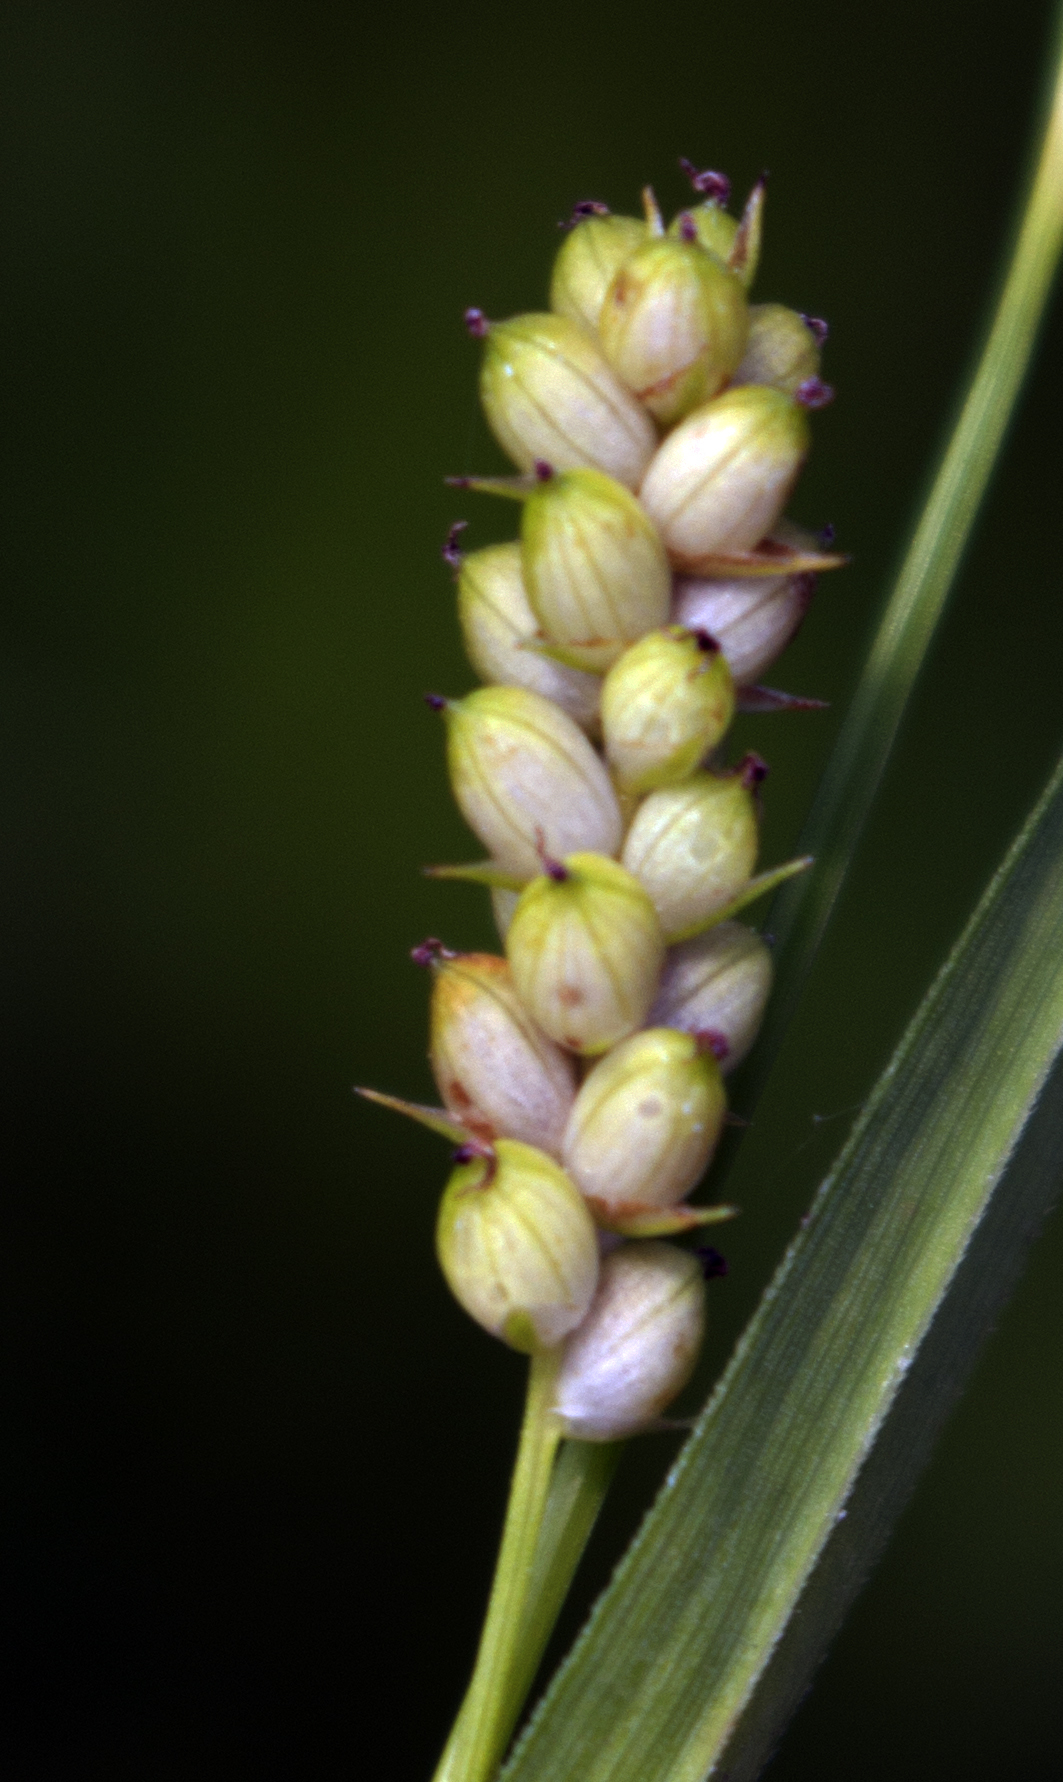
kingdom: Plantae
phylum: Tracheophyta
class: Liliopsida
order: Poales
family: Cyperaceae
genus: Carex
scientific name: Carex granularis
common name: Granular sedge
